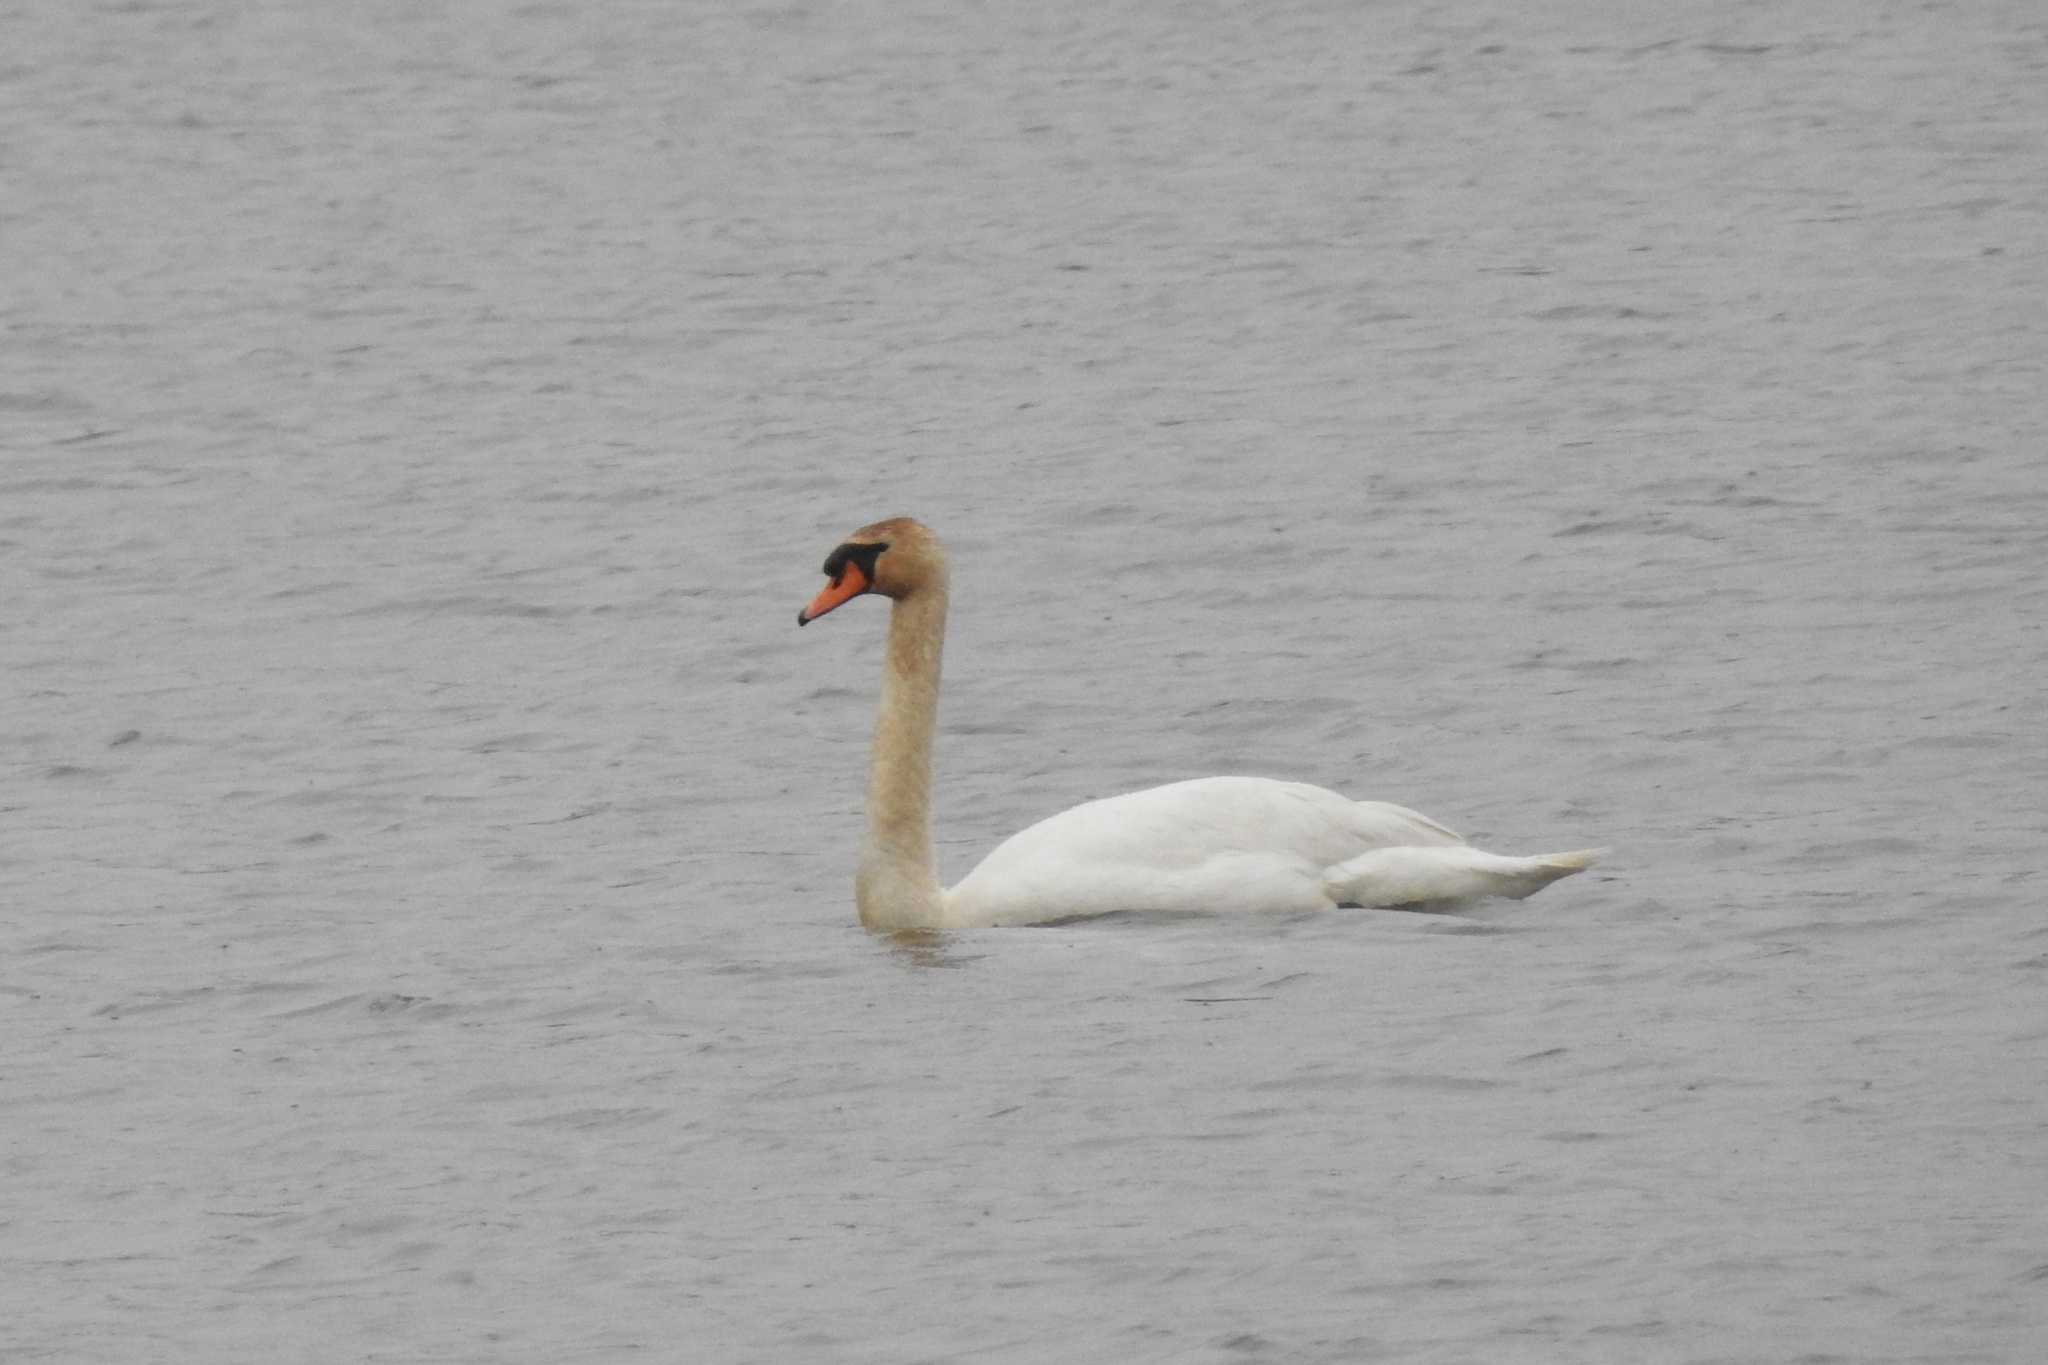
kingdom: Animalia
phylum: Chordata
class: Aves
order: Anseriformes
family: Anatidae
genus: Cygnus
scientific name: Cygnus olor
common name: Mute swan
